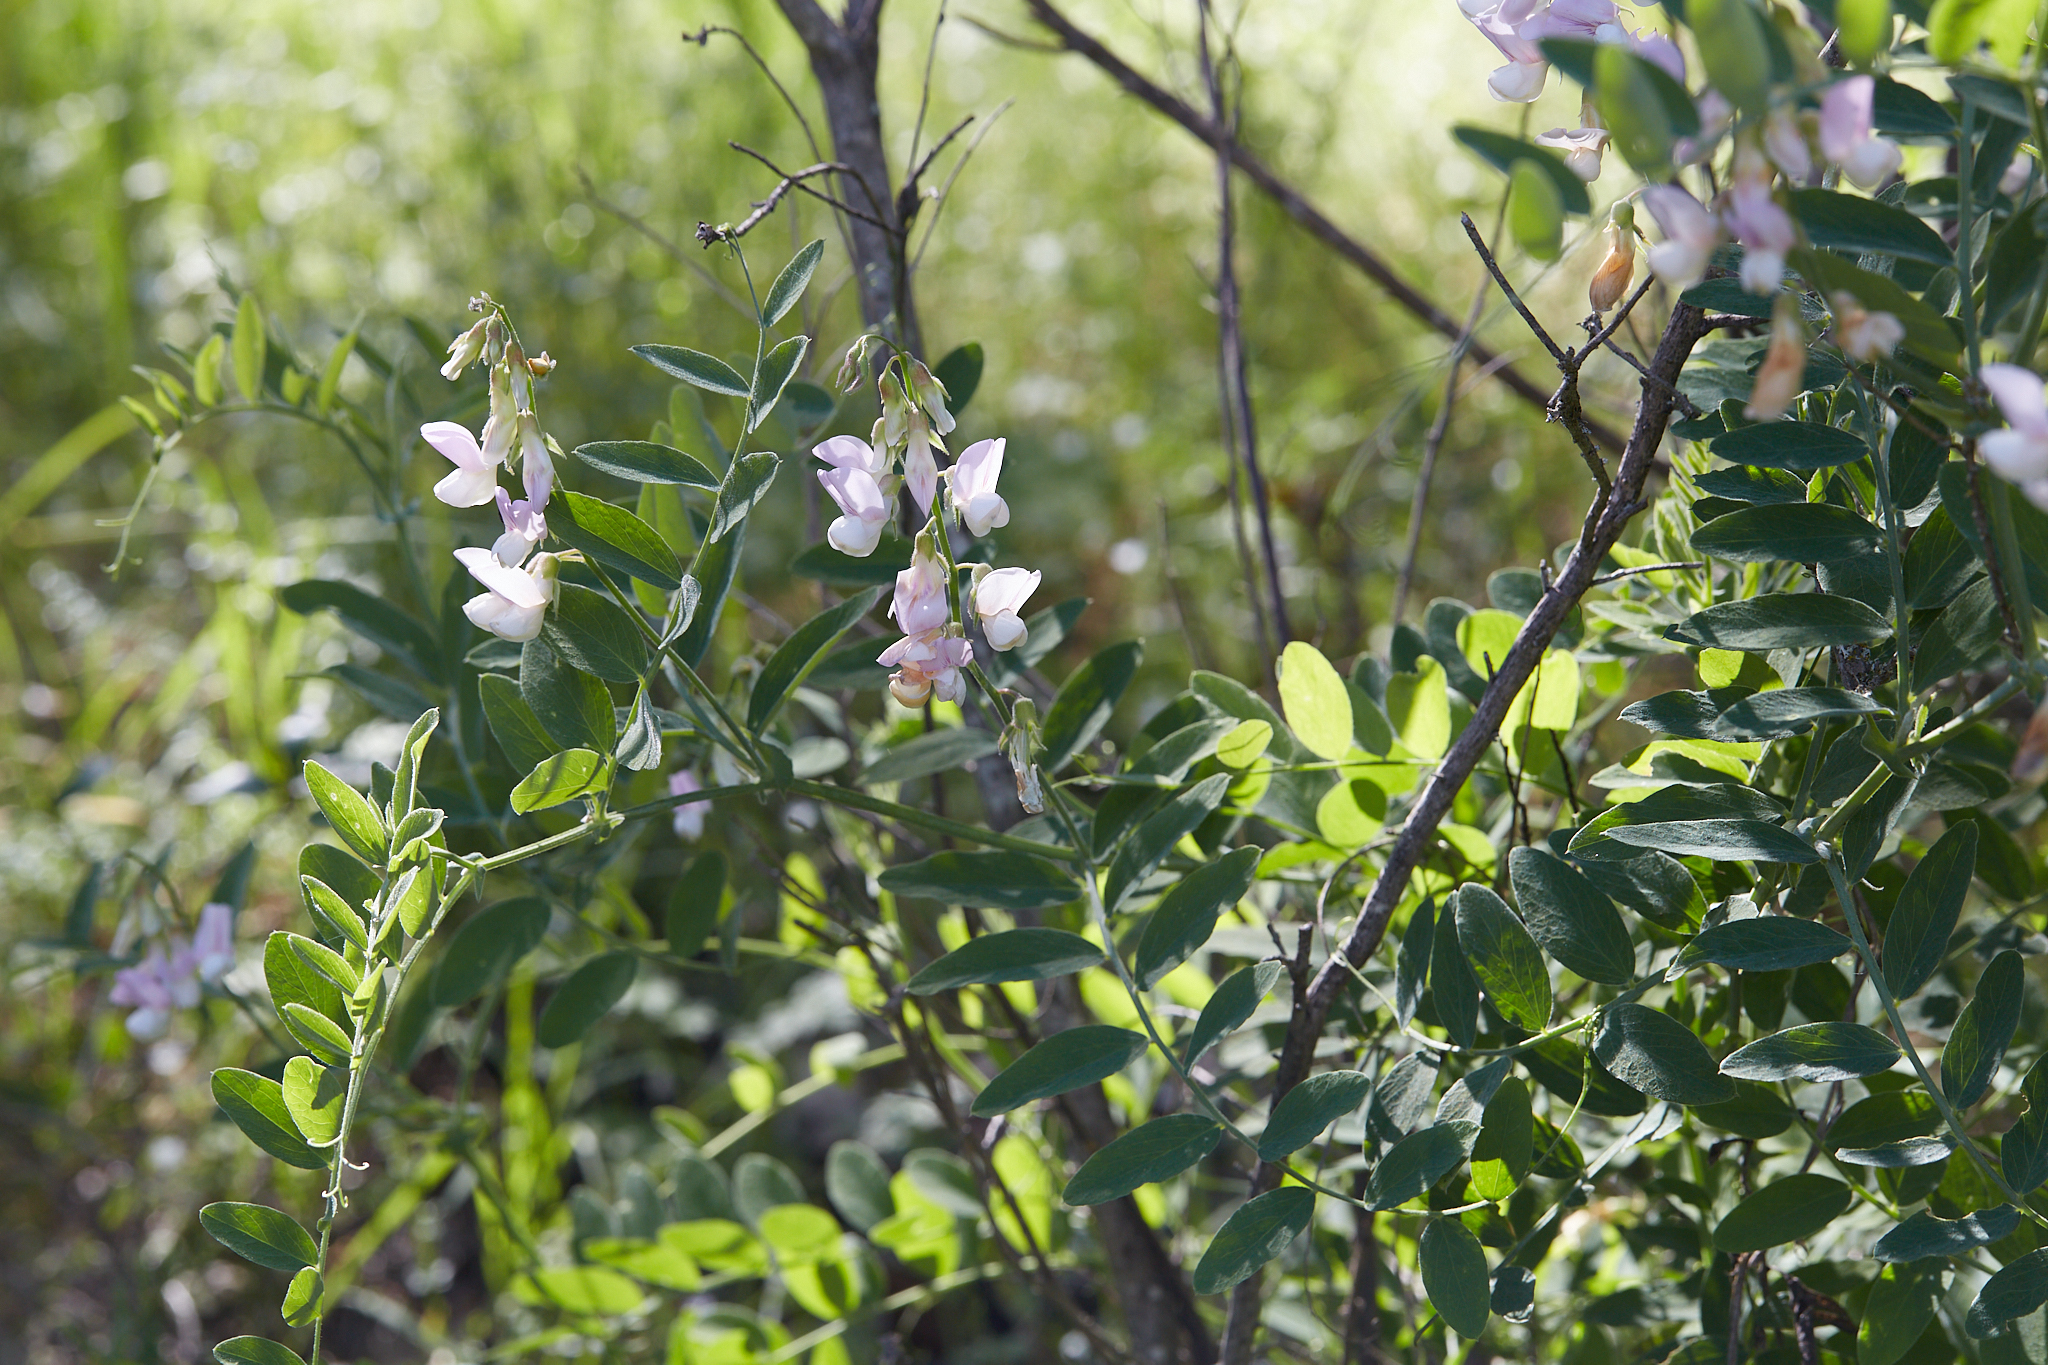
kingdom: Plantae
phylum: Tracheophyta
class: Magnoliopsida
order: Fabales
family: Fabaceae
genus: Lathyrus
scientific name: Lathyrus vestitus
